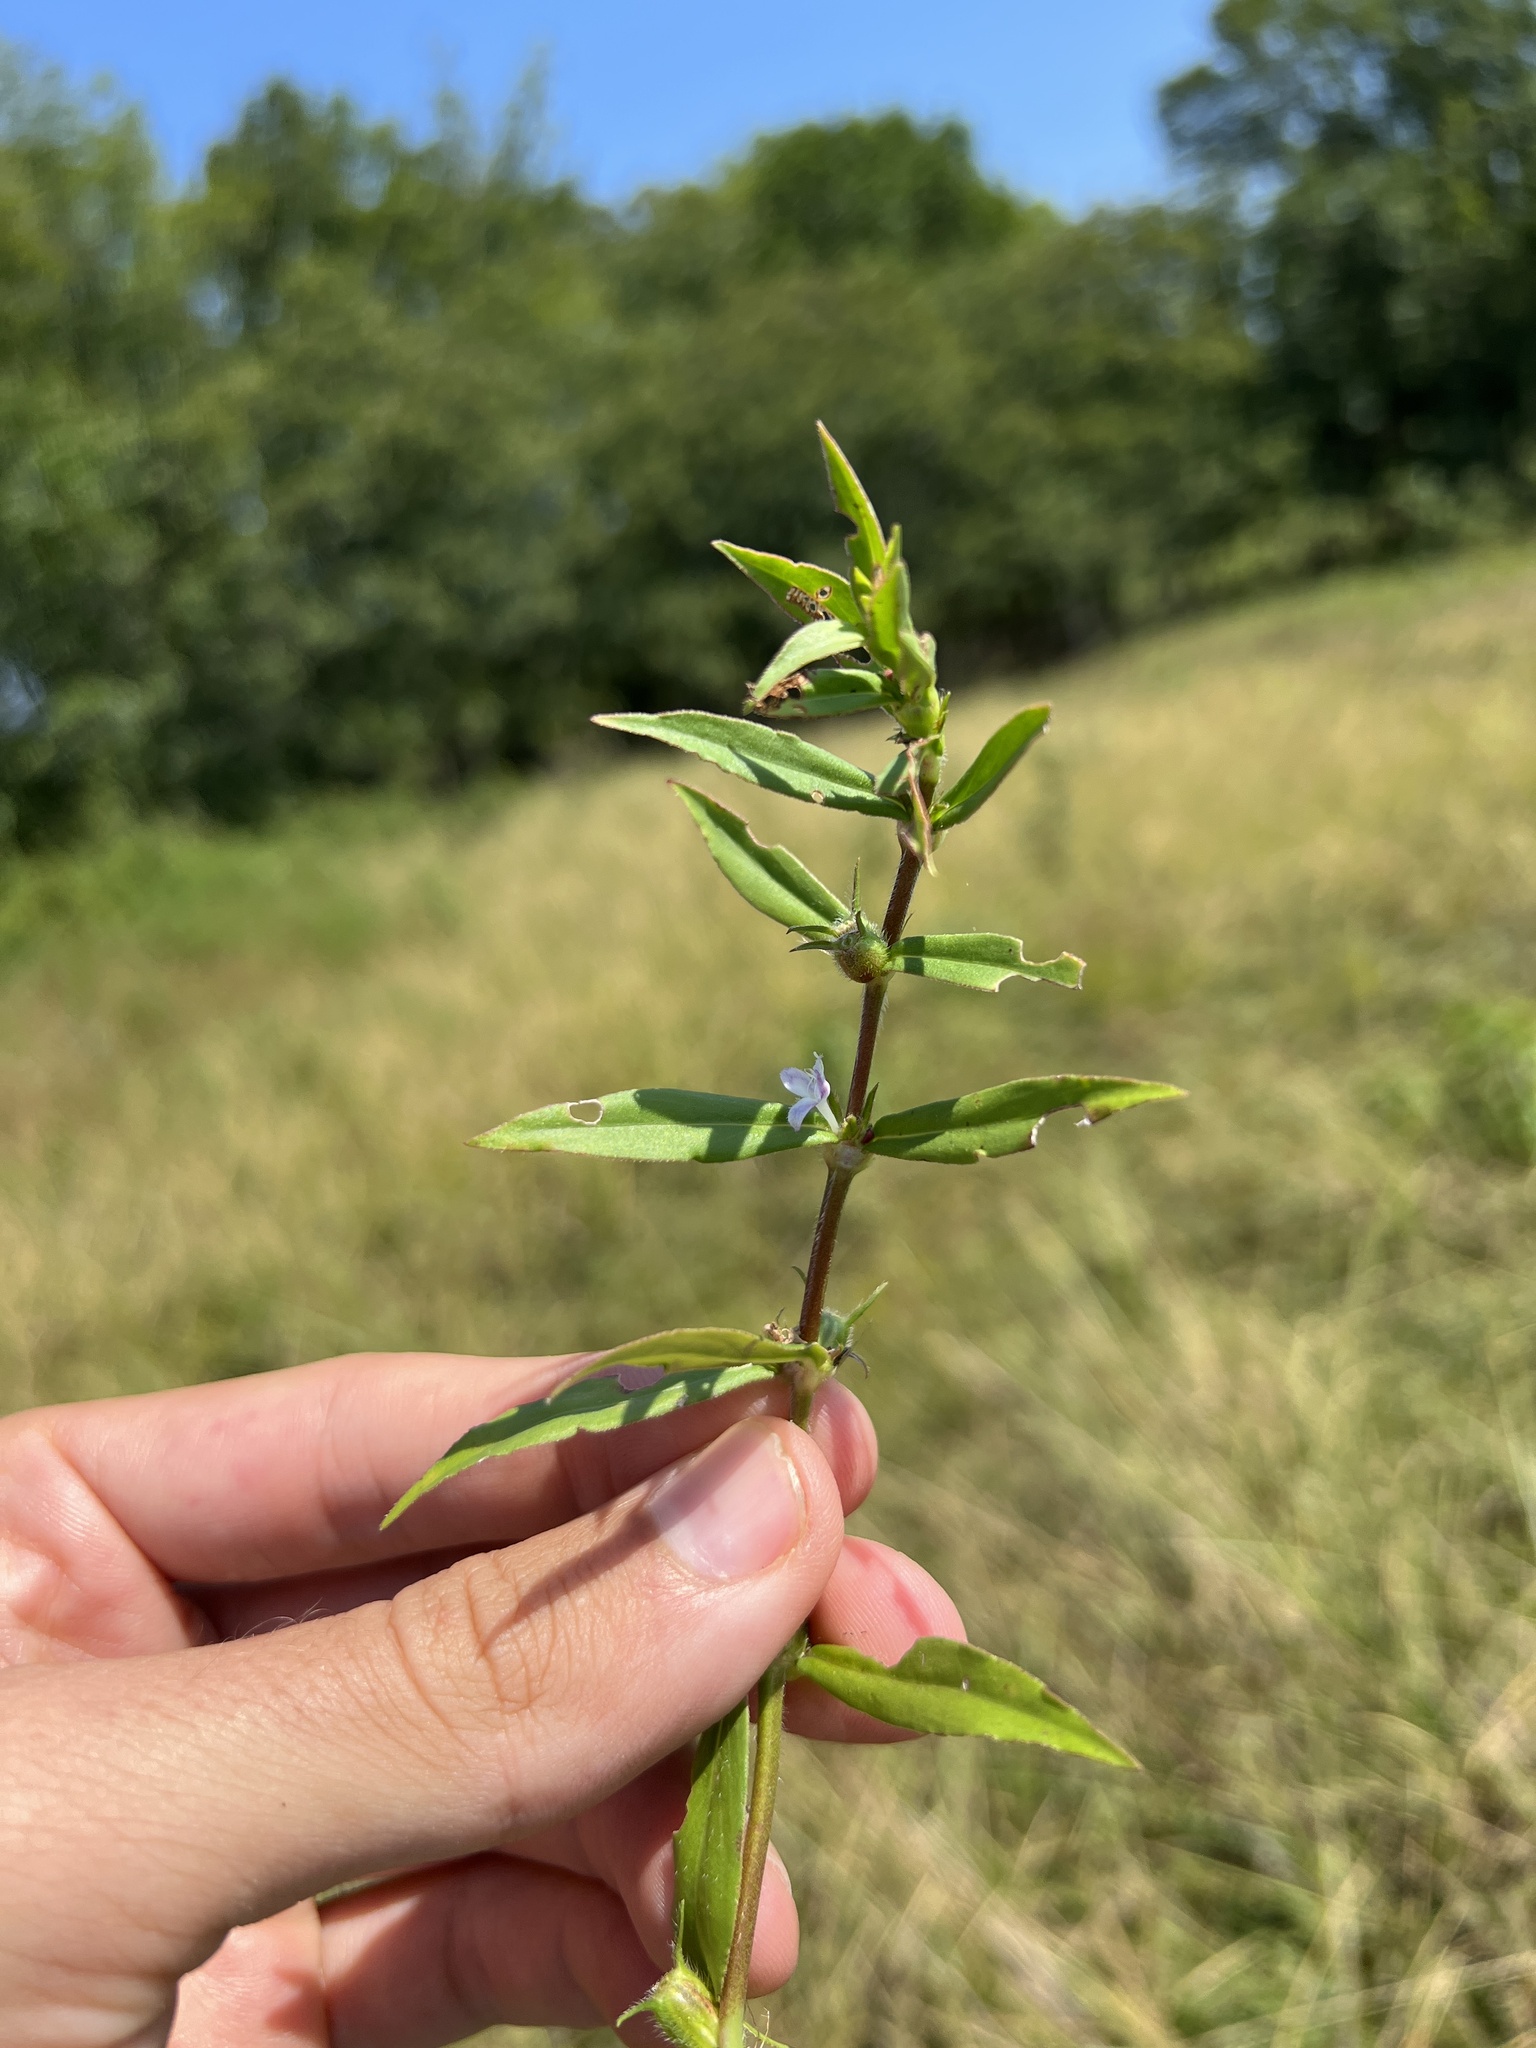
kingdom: Plantae
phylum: Tracheophyta
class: Magnoliopsida
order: Gentianales
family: Rubiaceae
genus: Diodia
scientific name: Diodia virginiana
